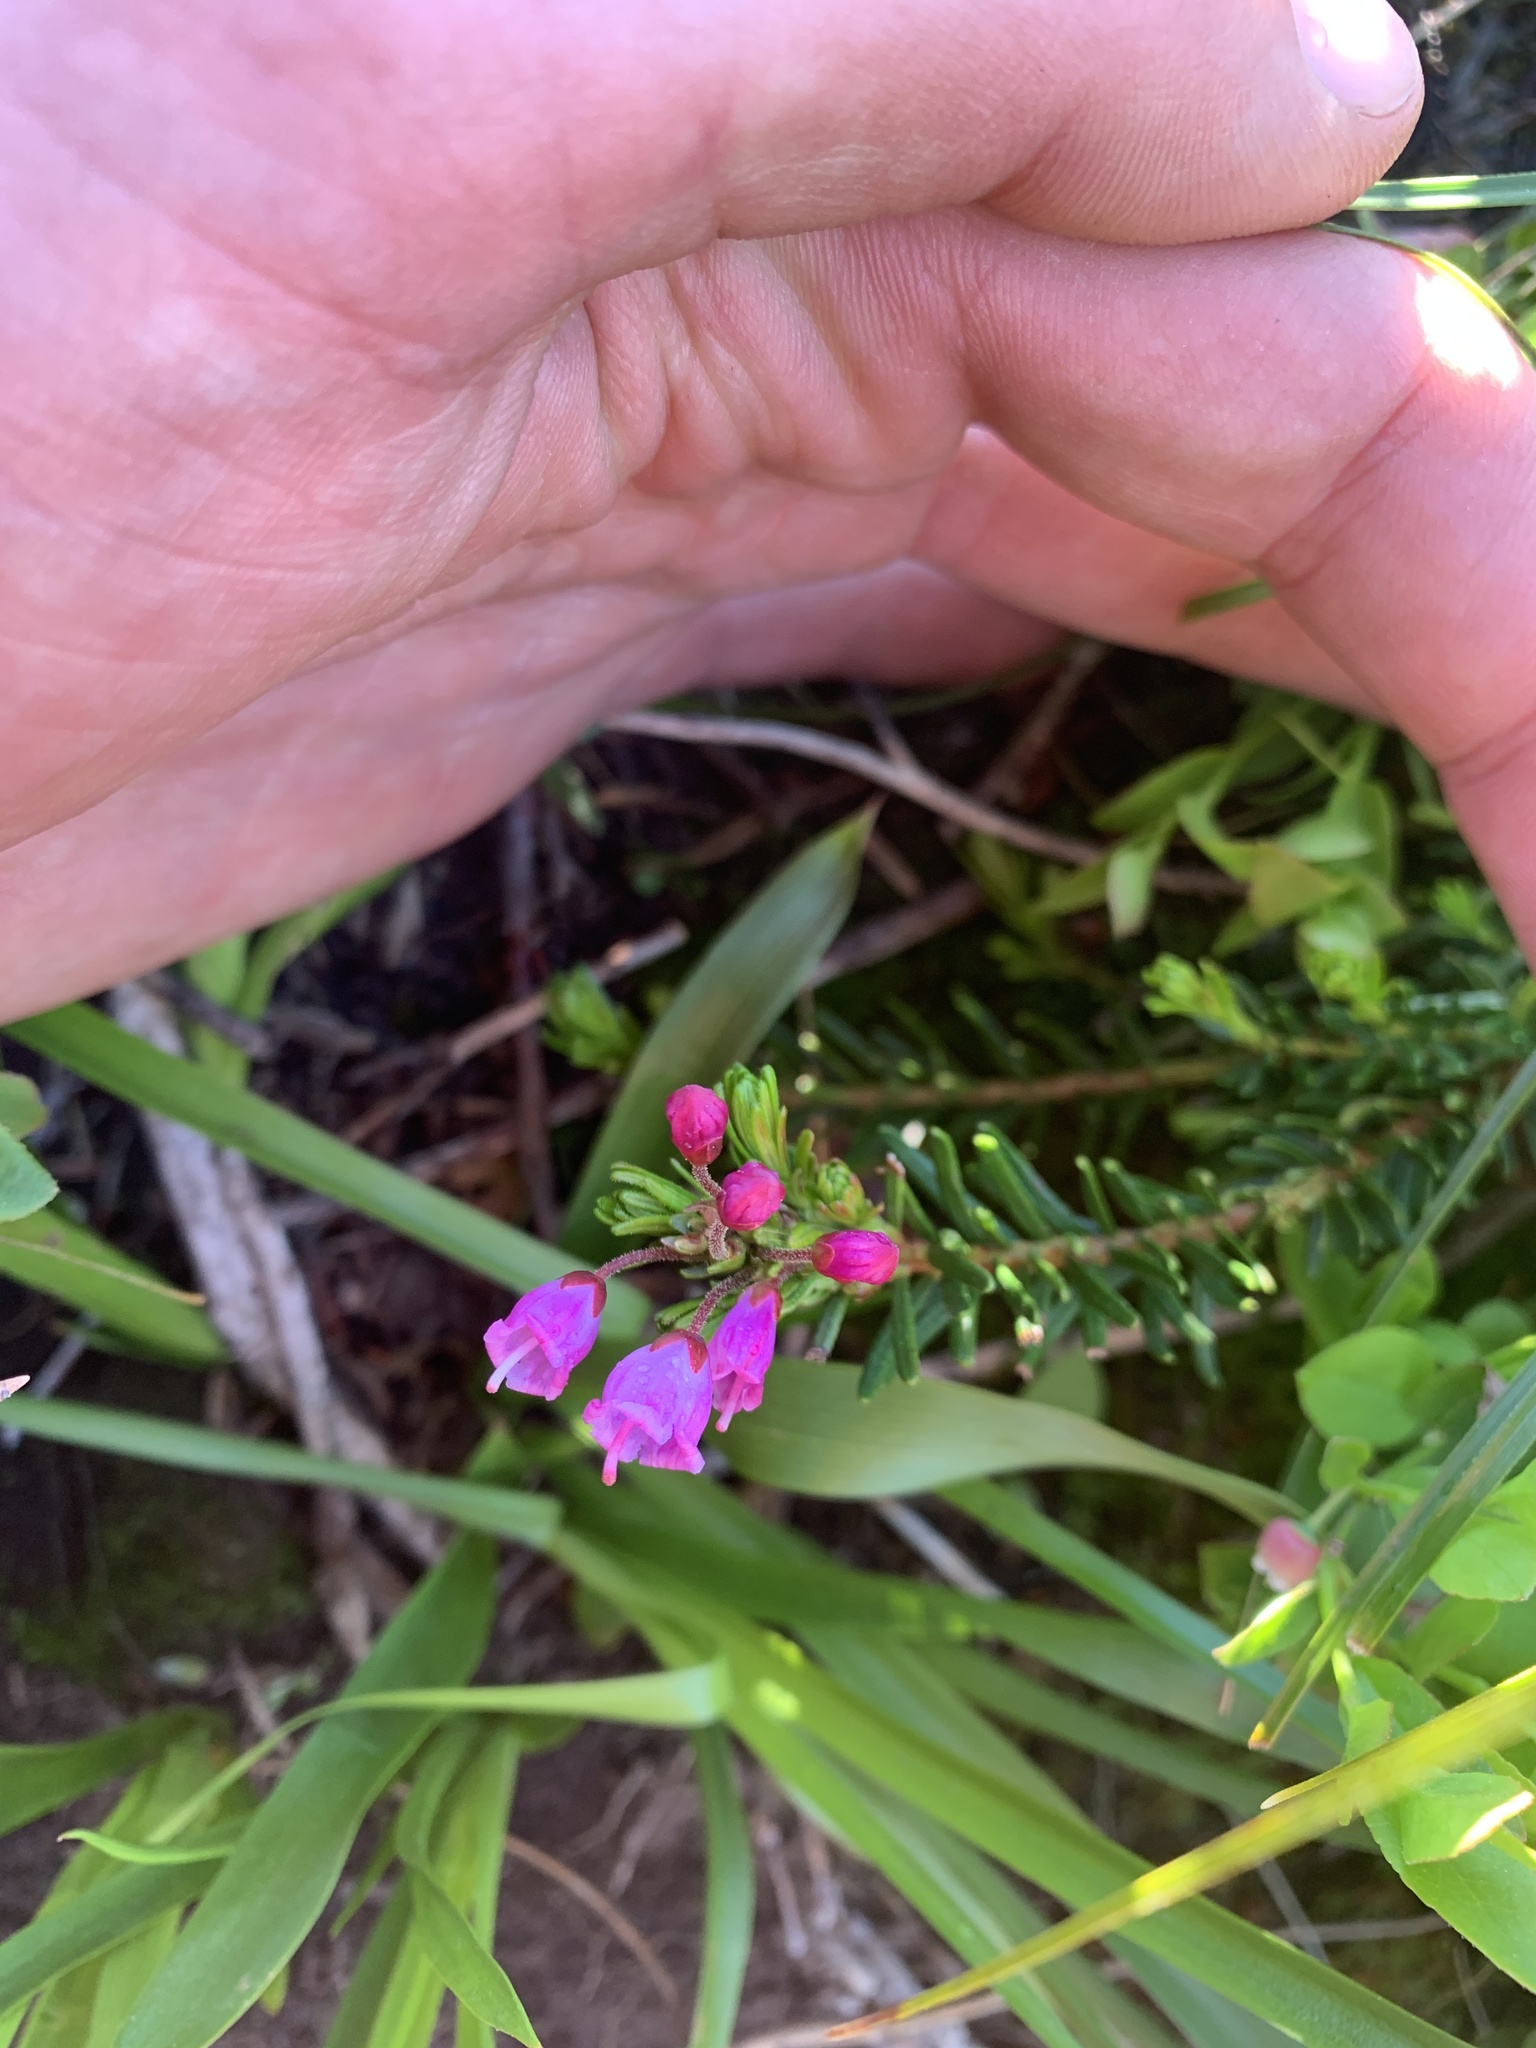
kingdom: Plantae
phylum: Tracheophyta
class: Magnoliopsida
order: Ericales
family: Ericaceae
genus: Phyllodoce
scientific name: Phyllodoce empetriformis
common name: Pink mountain heather
